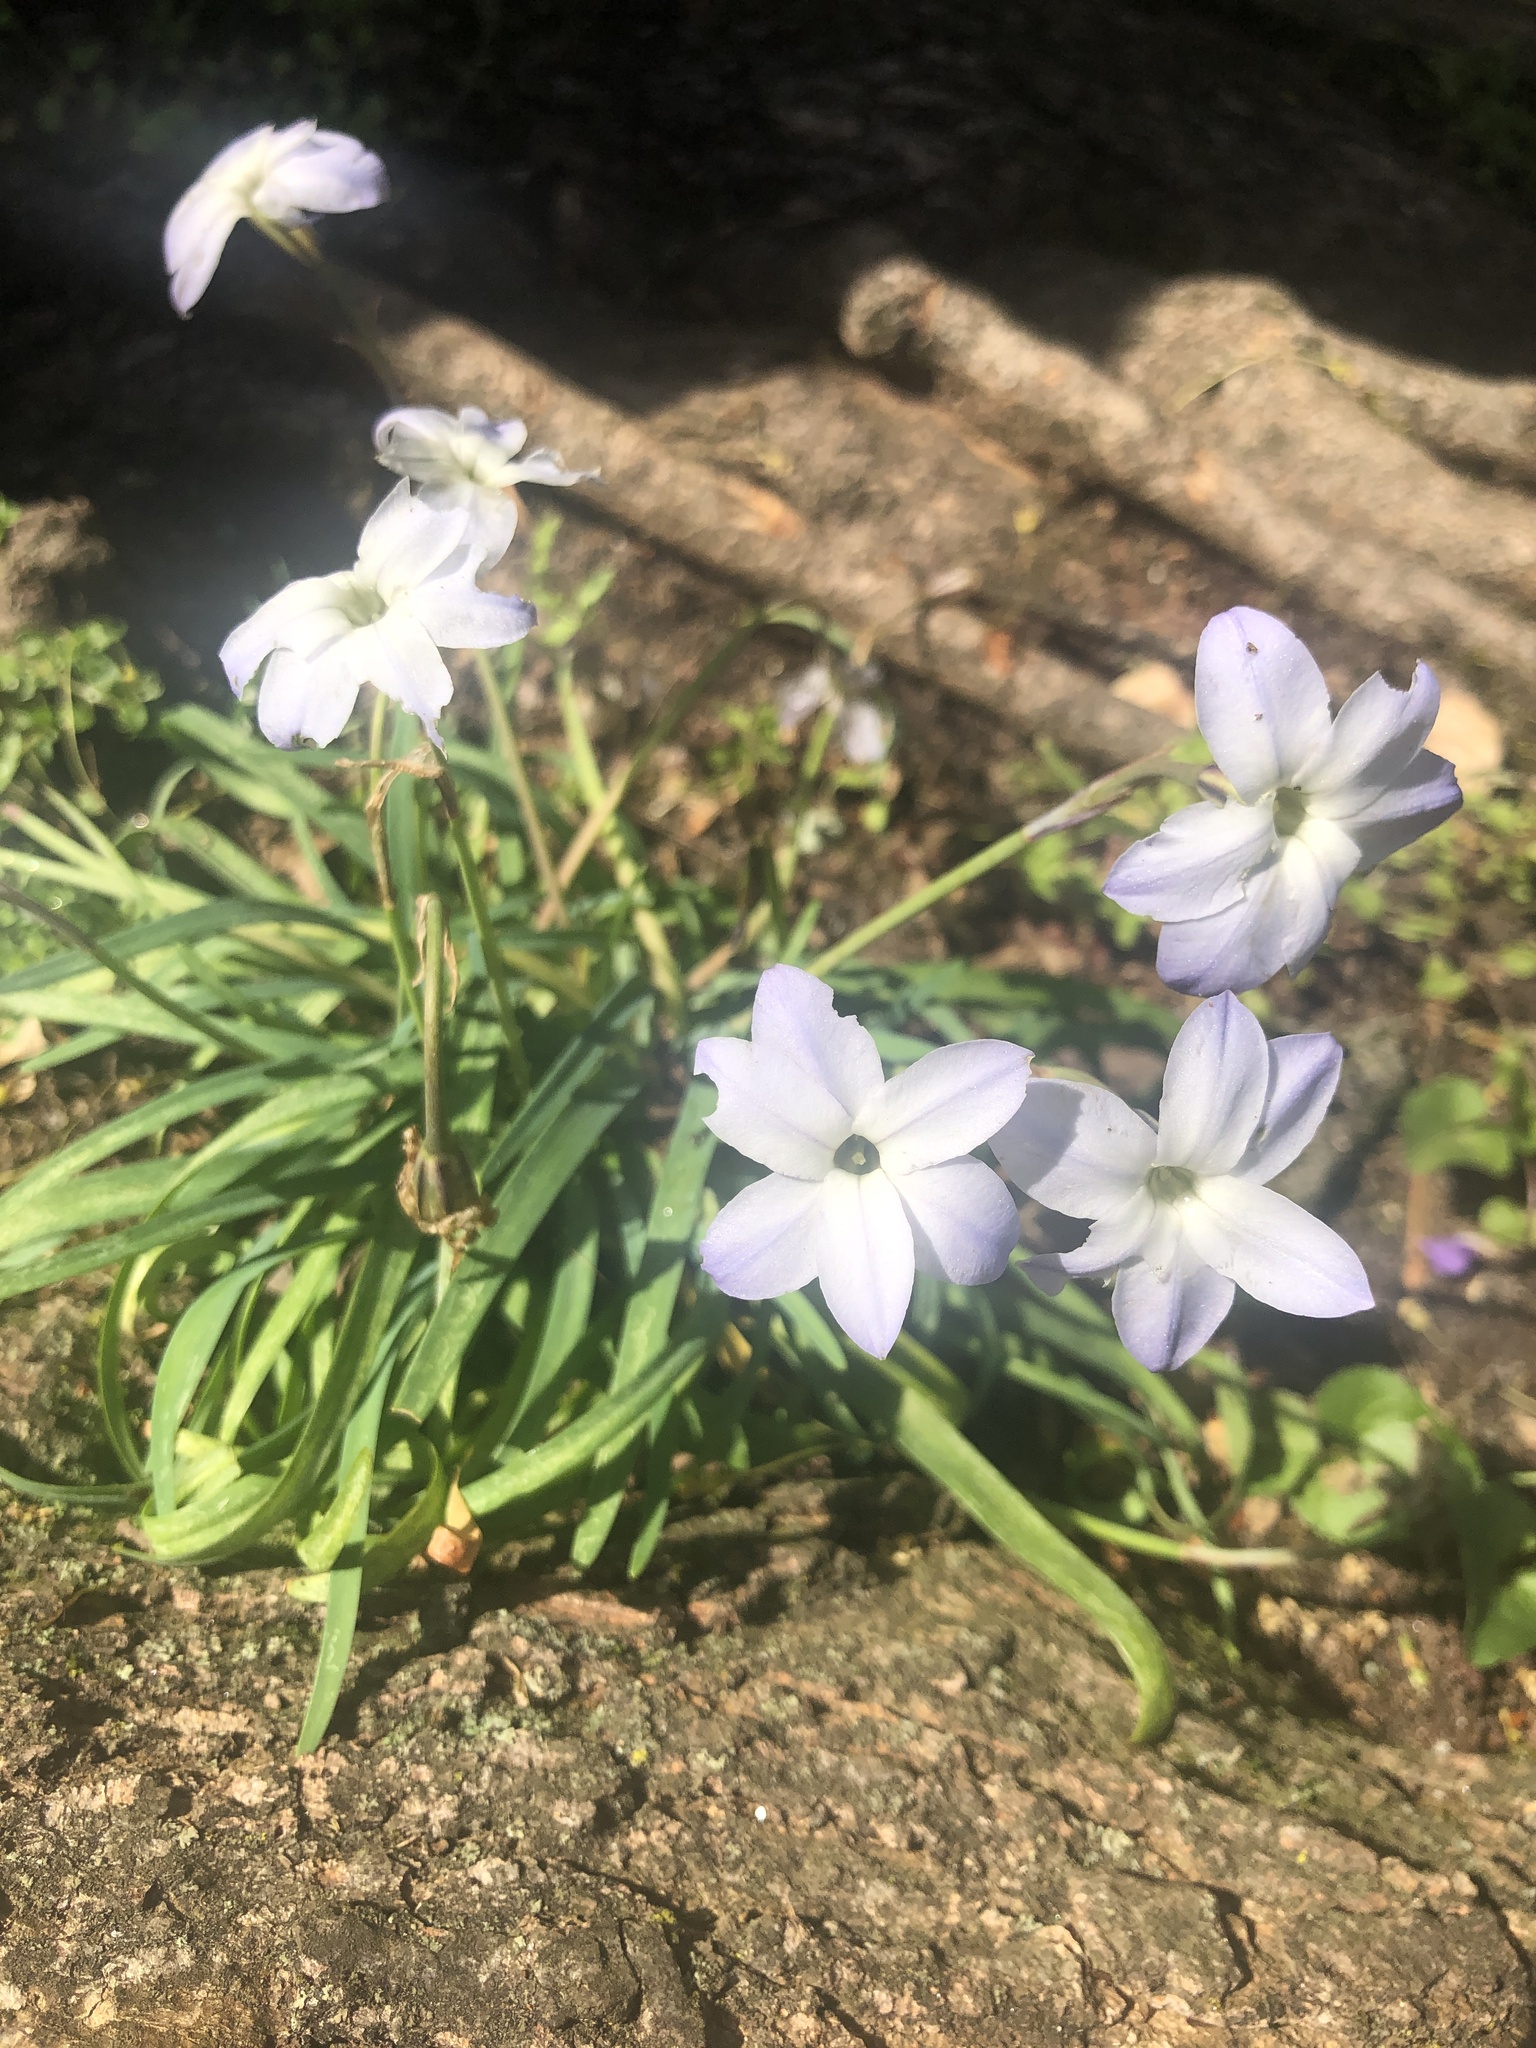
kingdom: Plantae
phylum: Tracheophyta
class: Liliopsida
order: Asparagales
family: Amaryllidaceae
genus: Ipheion
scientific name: Ipheion uniflorum
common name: Spring starflower
